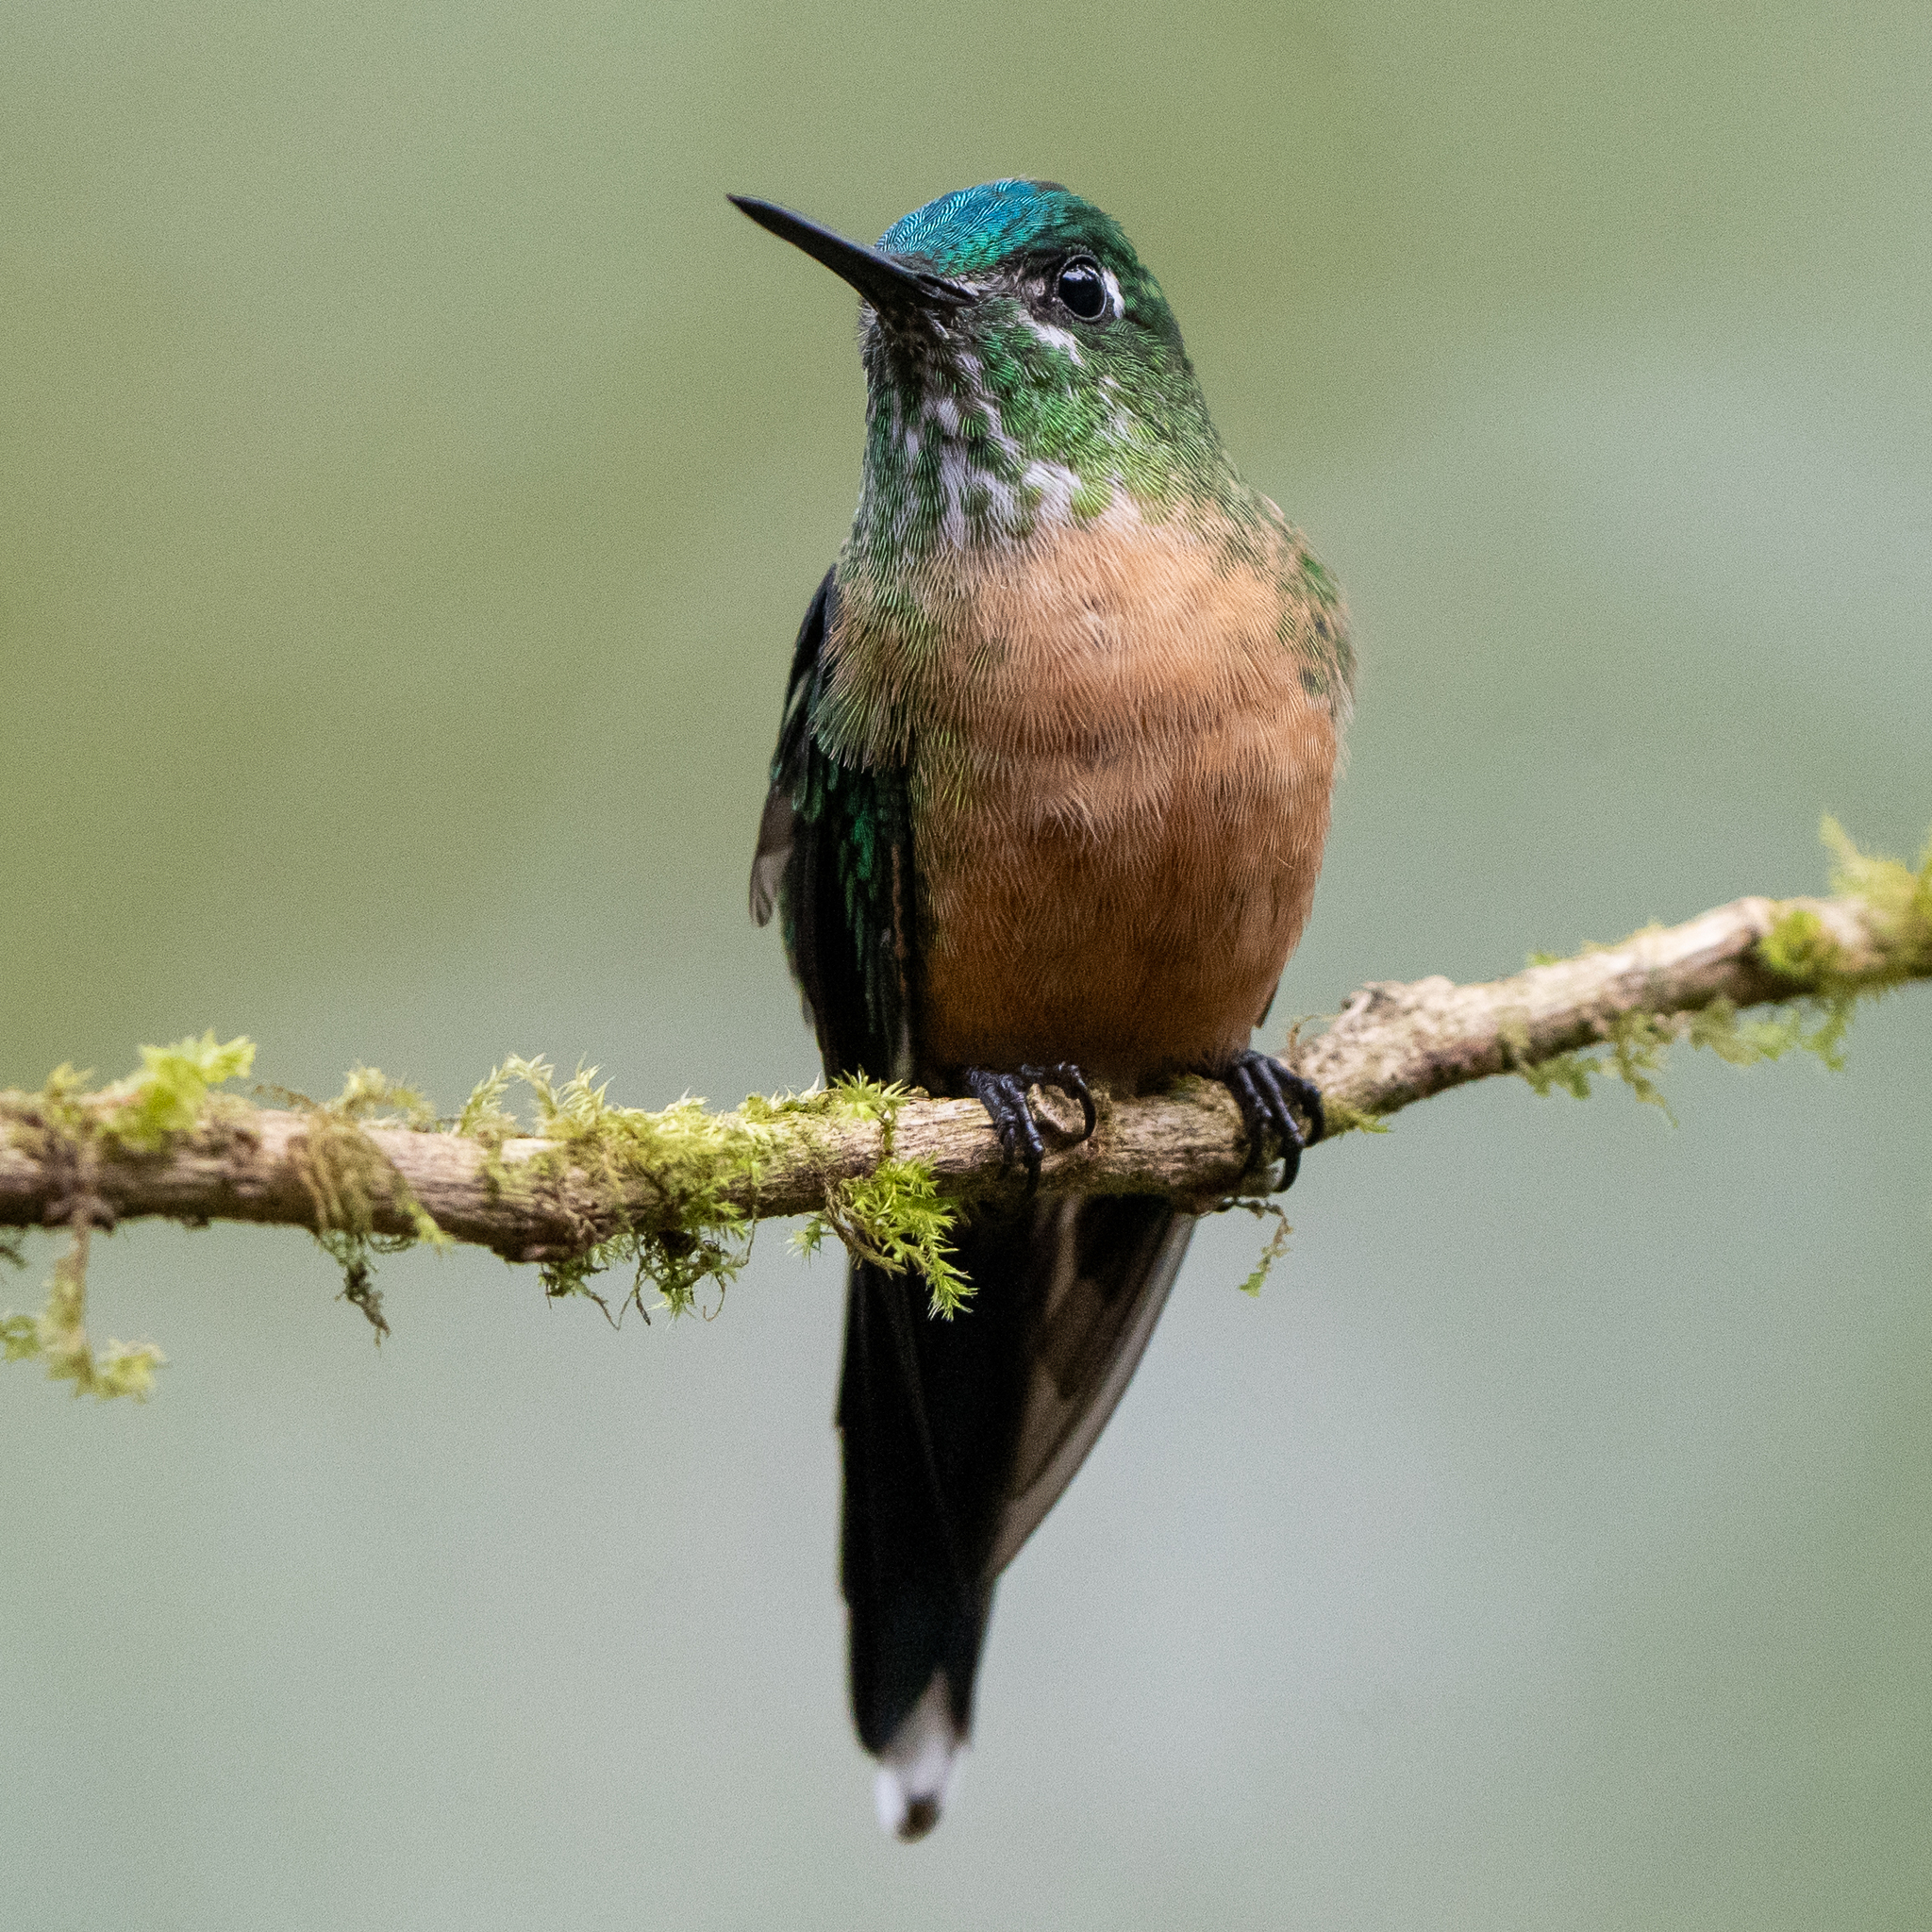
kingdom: Animalia
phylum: Chordata
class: Aves
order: Apodiformes
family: Trochilidae
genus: Aglaiocercus
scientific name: Aglaiocercus kingii
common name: Long-tailed sylph
